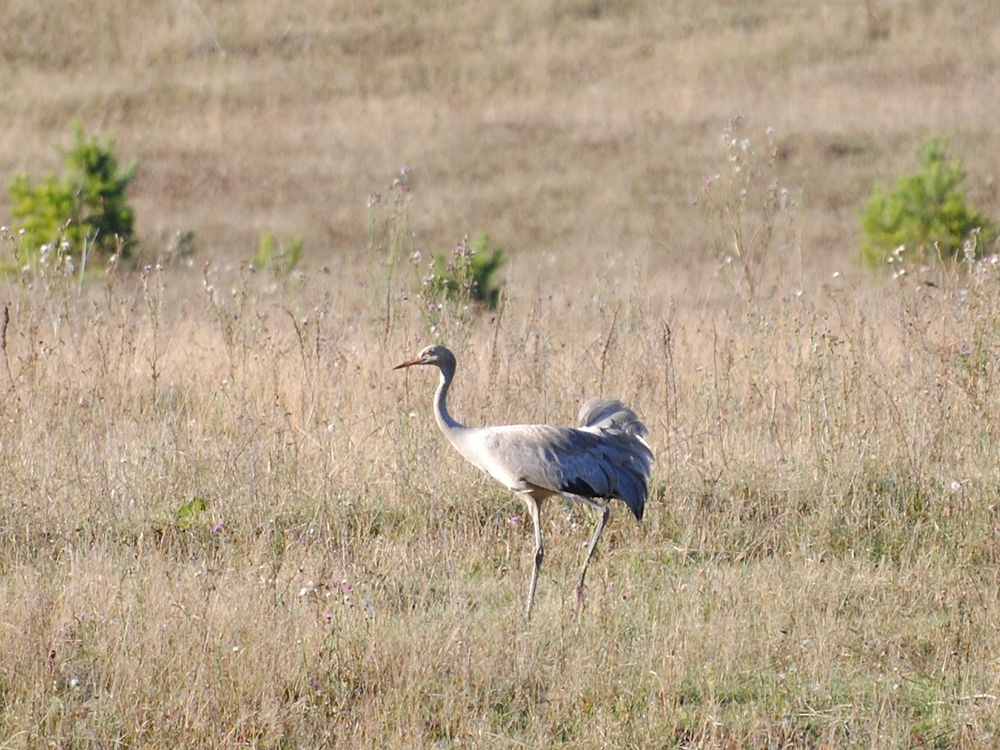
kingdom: Animalia
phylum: Chordata
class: Aves
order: Gruiformes
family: Gruidae
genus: Grus
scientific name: Grus grus
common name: Common crane
